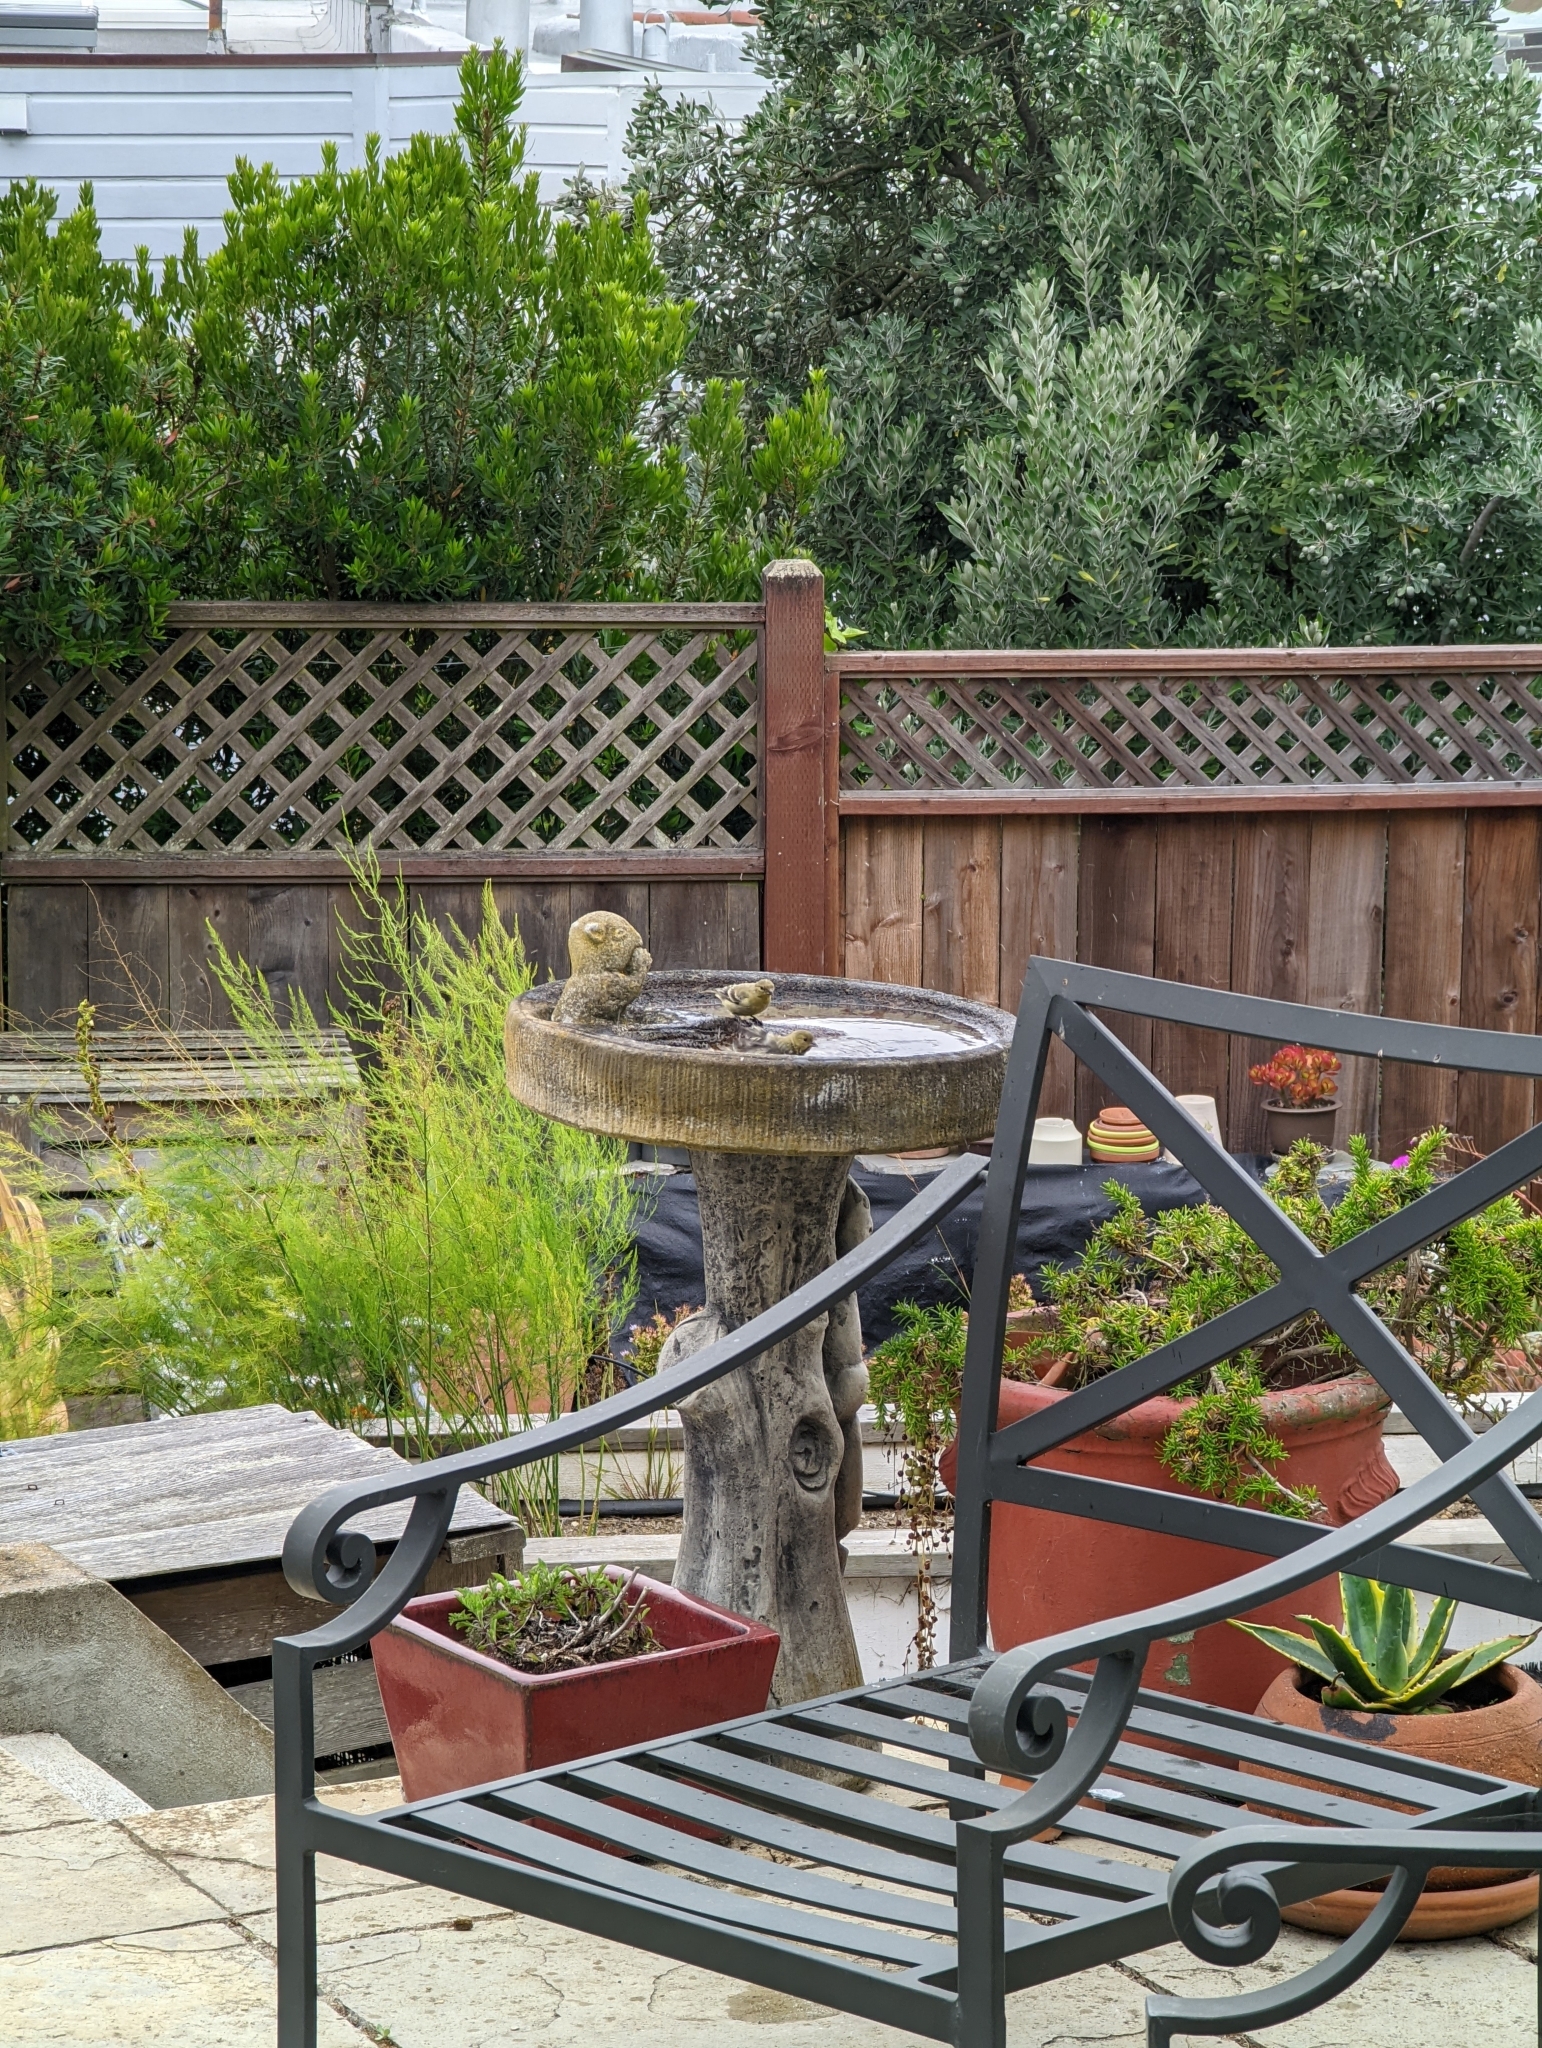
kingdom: Animalia
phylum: Chordata
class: Aves
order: Passeriformes
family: Fringillidae
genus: Spinus
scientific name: Spinus psaltria
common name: Lesser goldfinch
